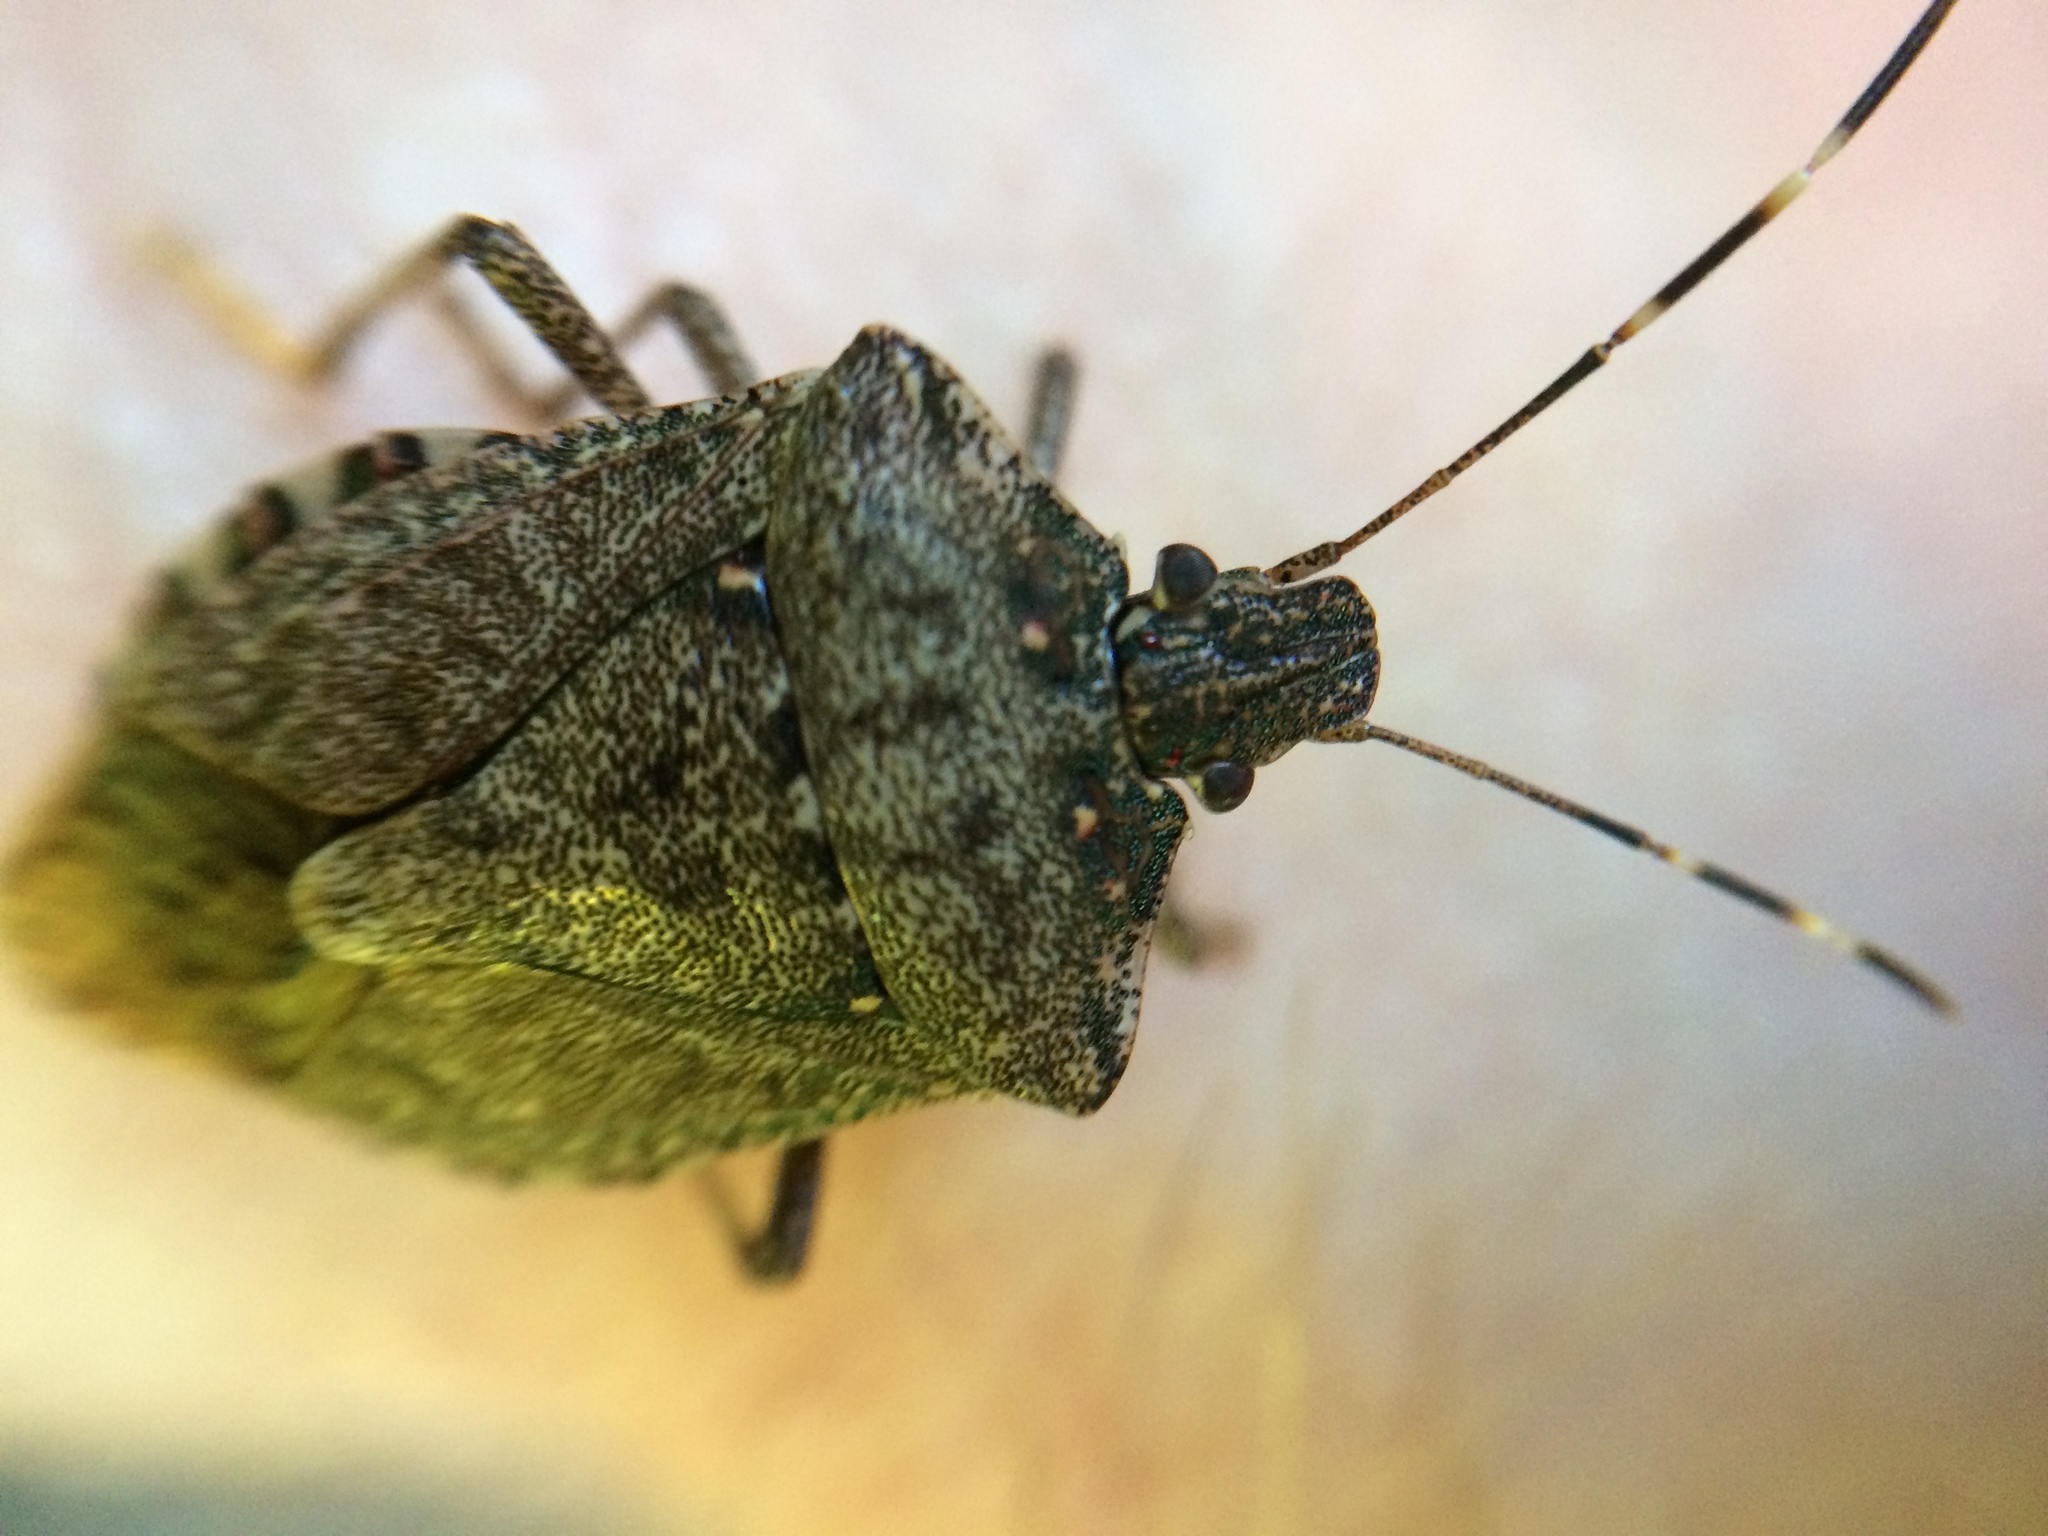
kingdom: Animalia
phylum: Arthropoda
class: Insecta
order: Hemiptera
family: Pentatomidae
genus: Halyomorpha
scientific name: Halyomorpha halys
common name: Brown marmorated stink bug
